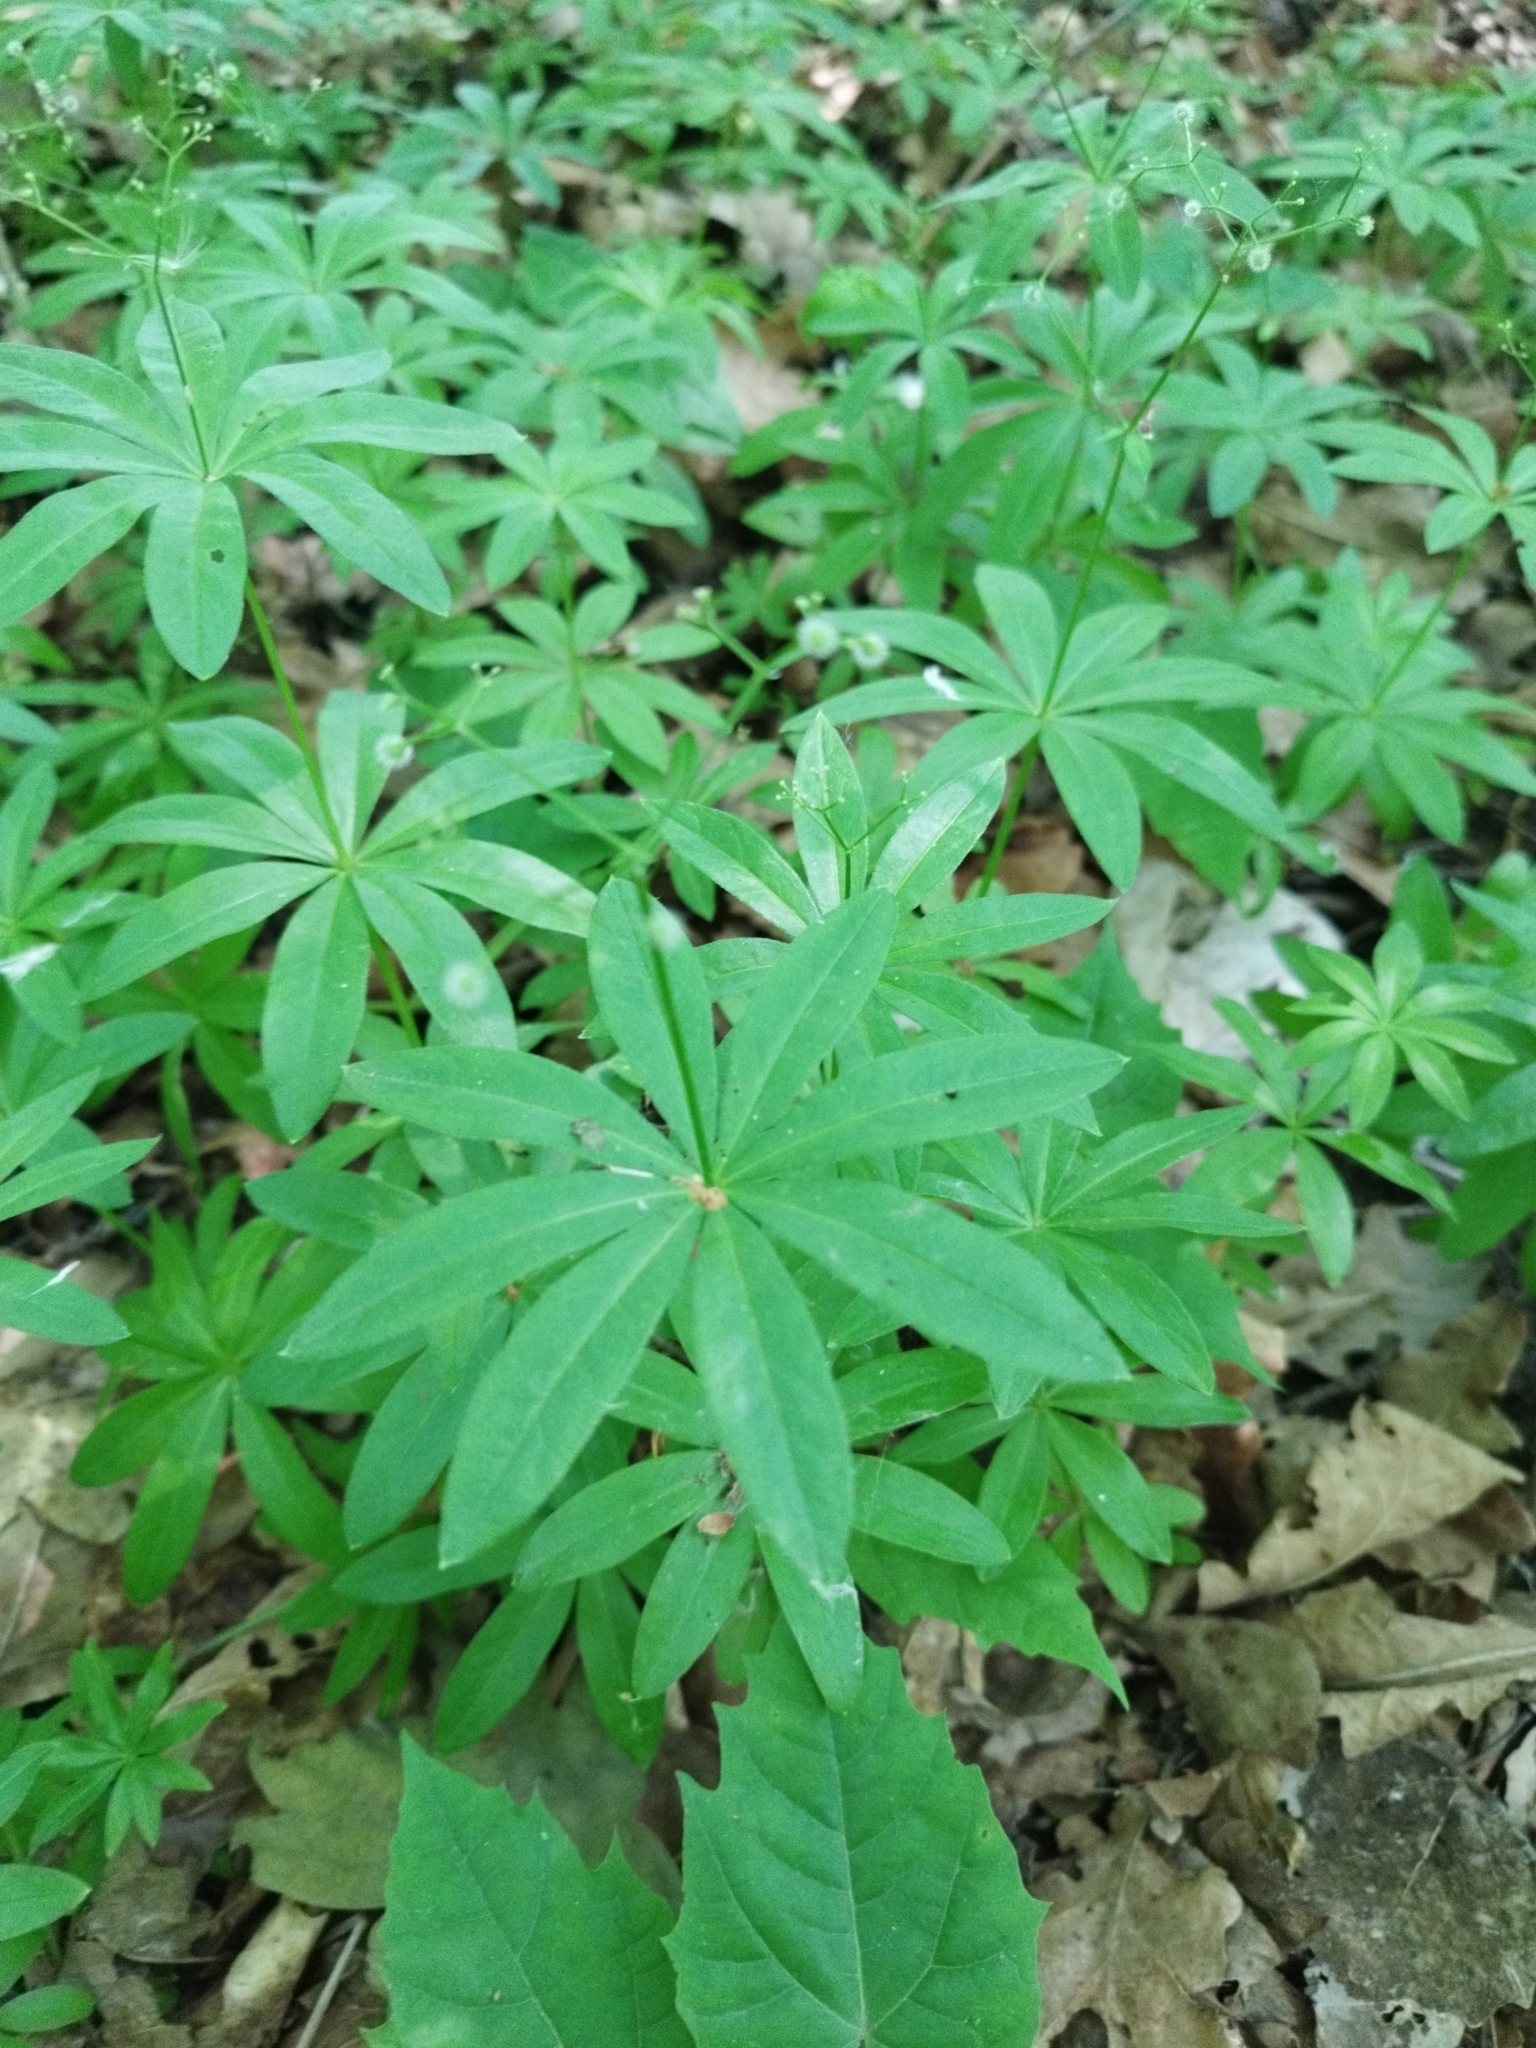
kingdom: Plantae
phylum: Tracheophyta
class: Magnoliopsida
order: Gentianales
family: Rubiaceae
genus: Galium
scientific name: Galium odoratum
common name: Sweet woodruff
